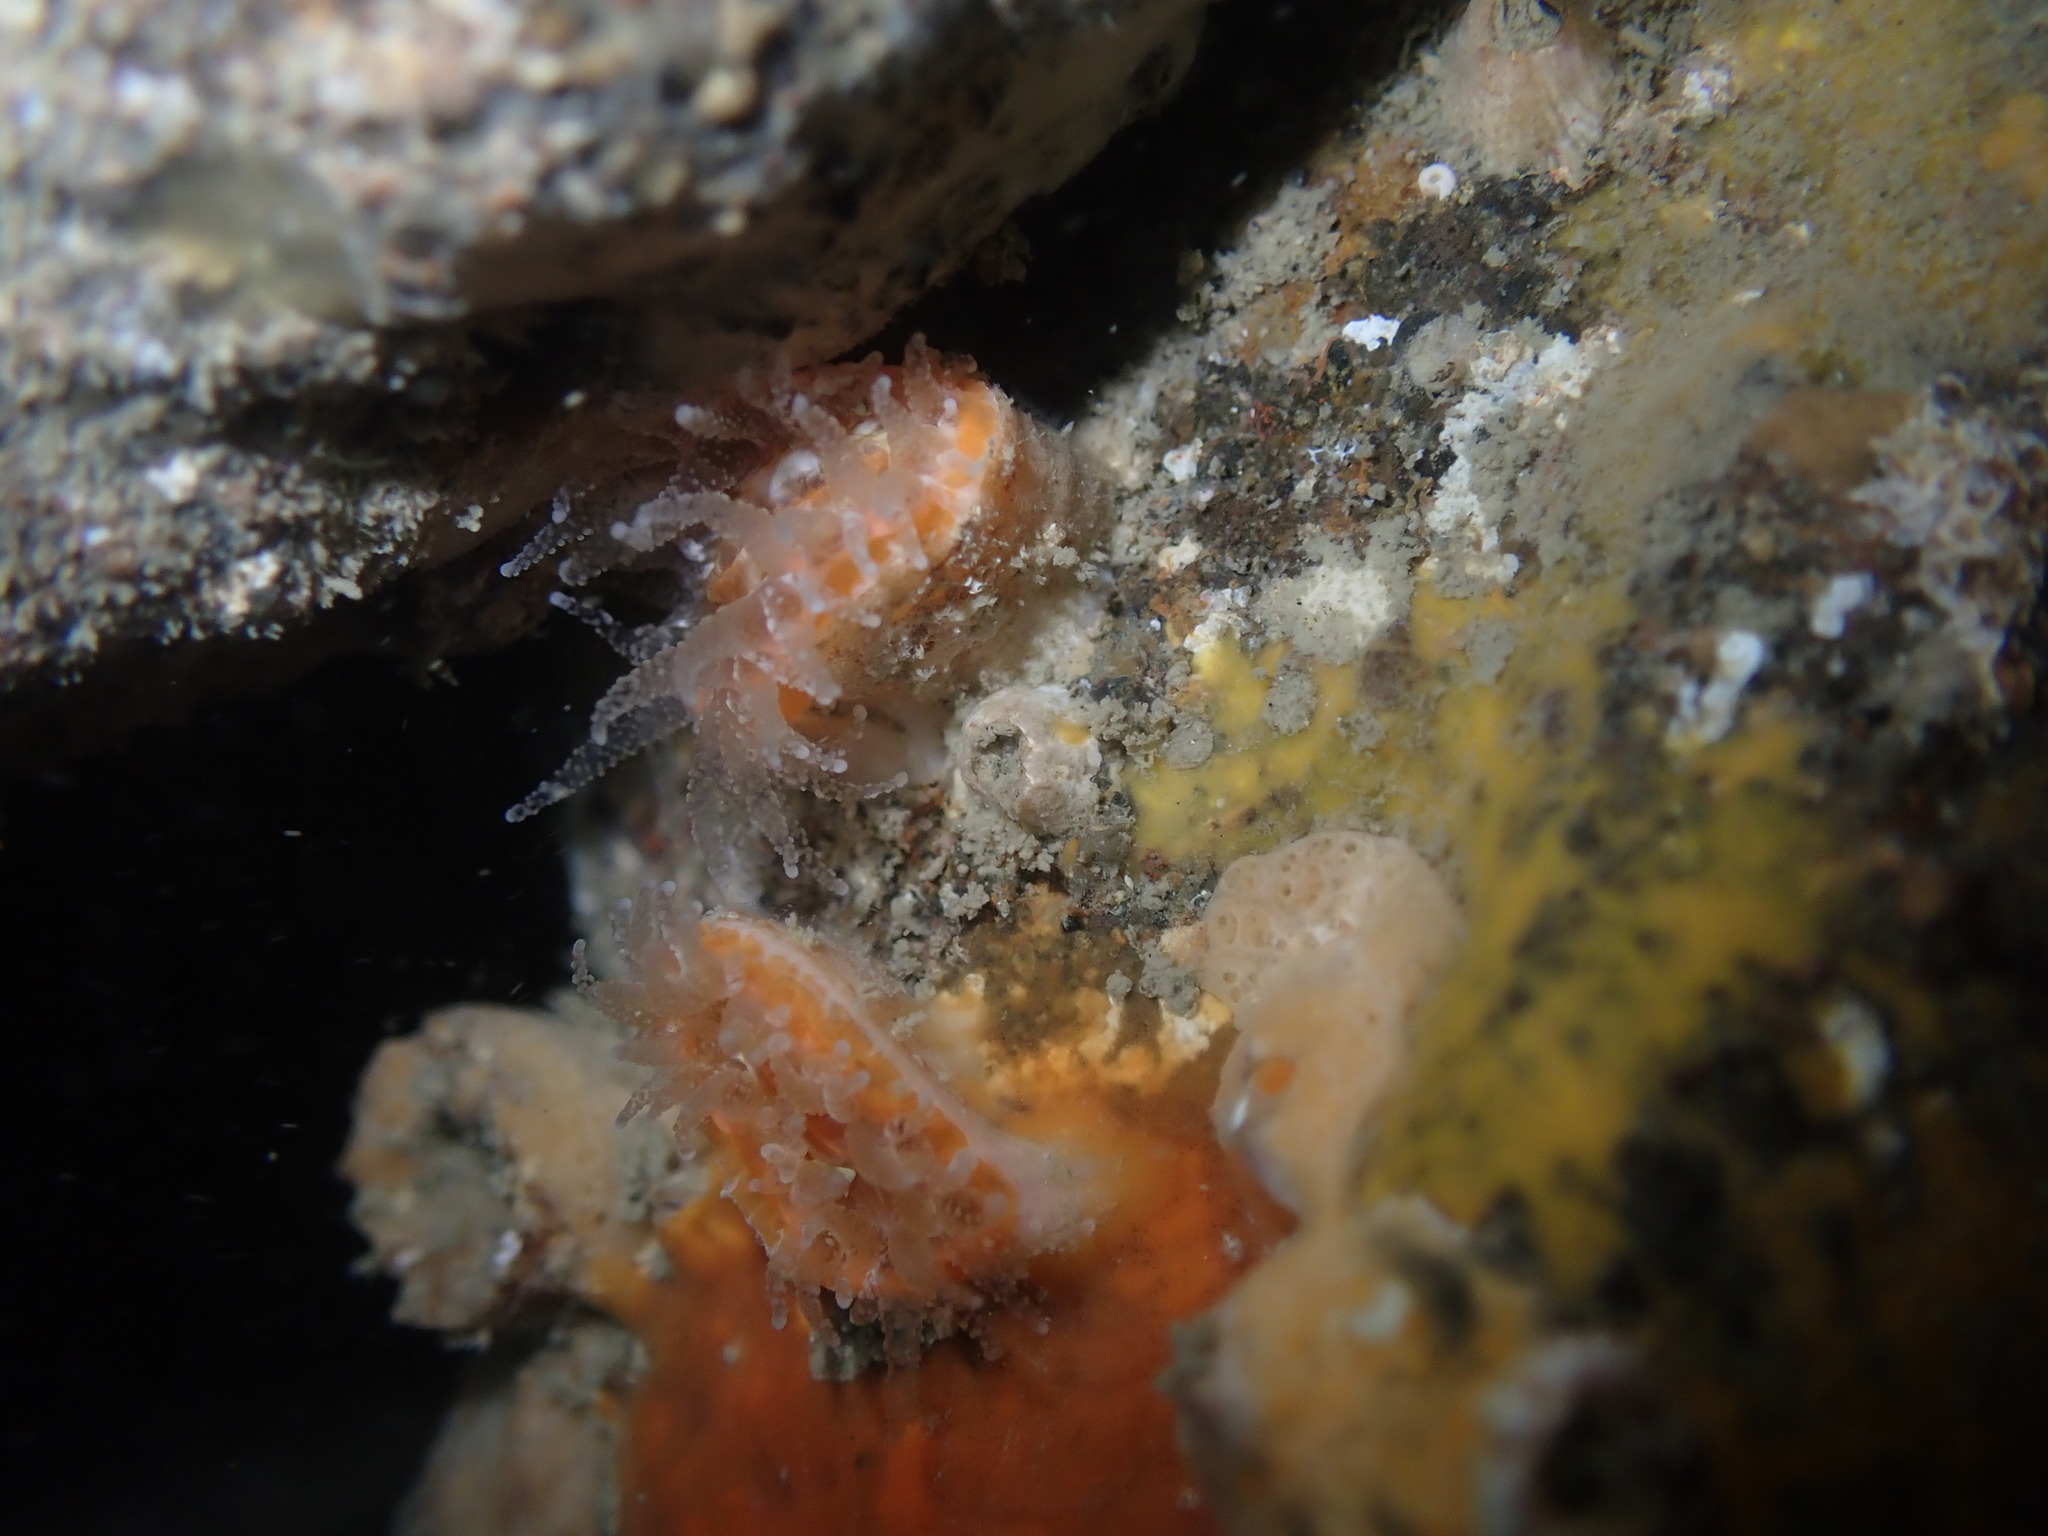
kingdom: Animalia
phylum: Cnidaria
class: Anthozoa
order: Scleractinia
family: Flabellidae
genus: Monomyces
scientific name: Monomyces rubrum
